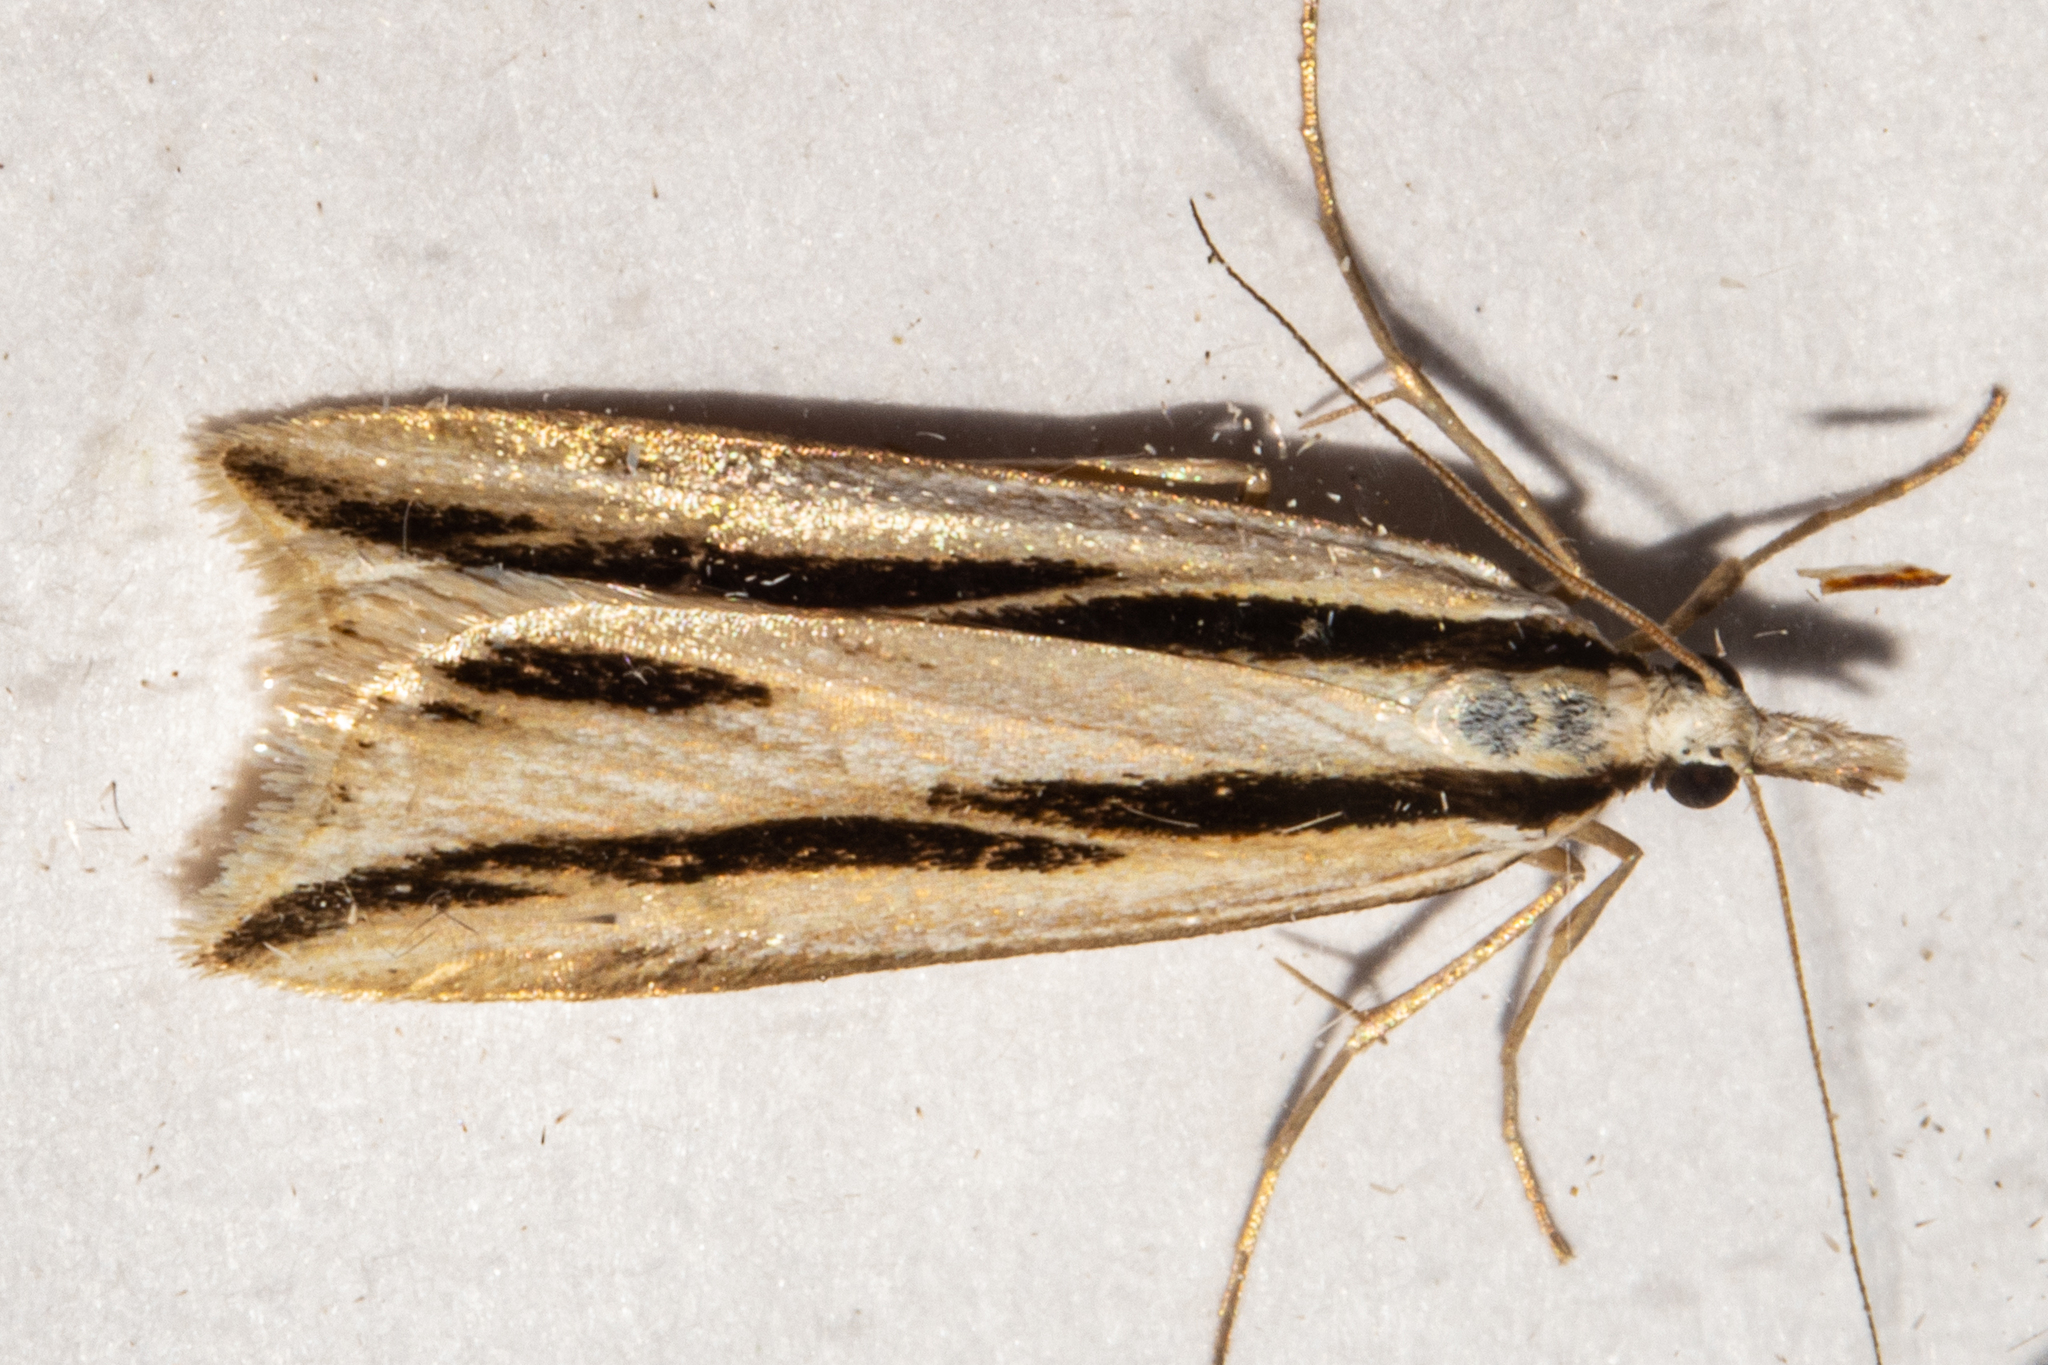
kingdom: Animalia
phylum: Arthropoda
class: Insecta
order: Lepidoptera
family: Crambidae
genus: Eudonia
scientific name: Eudonia trivirgata
